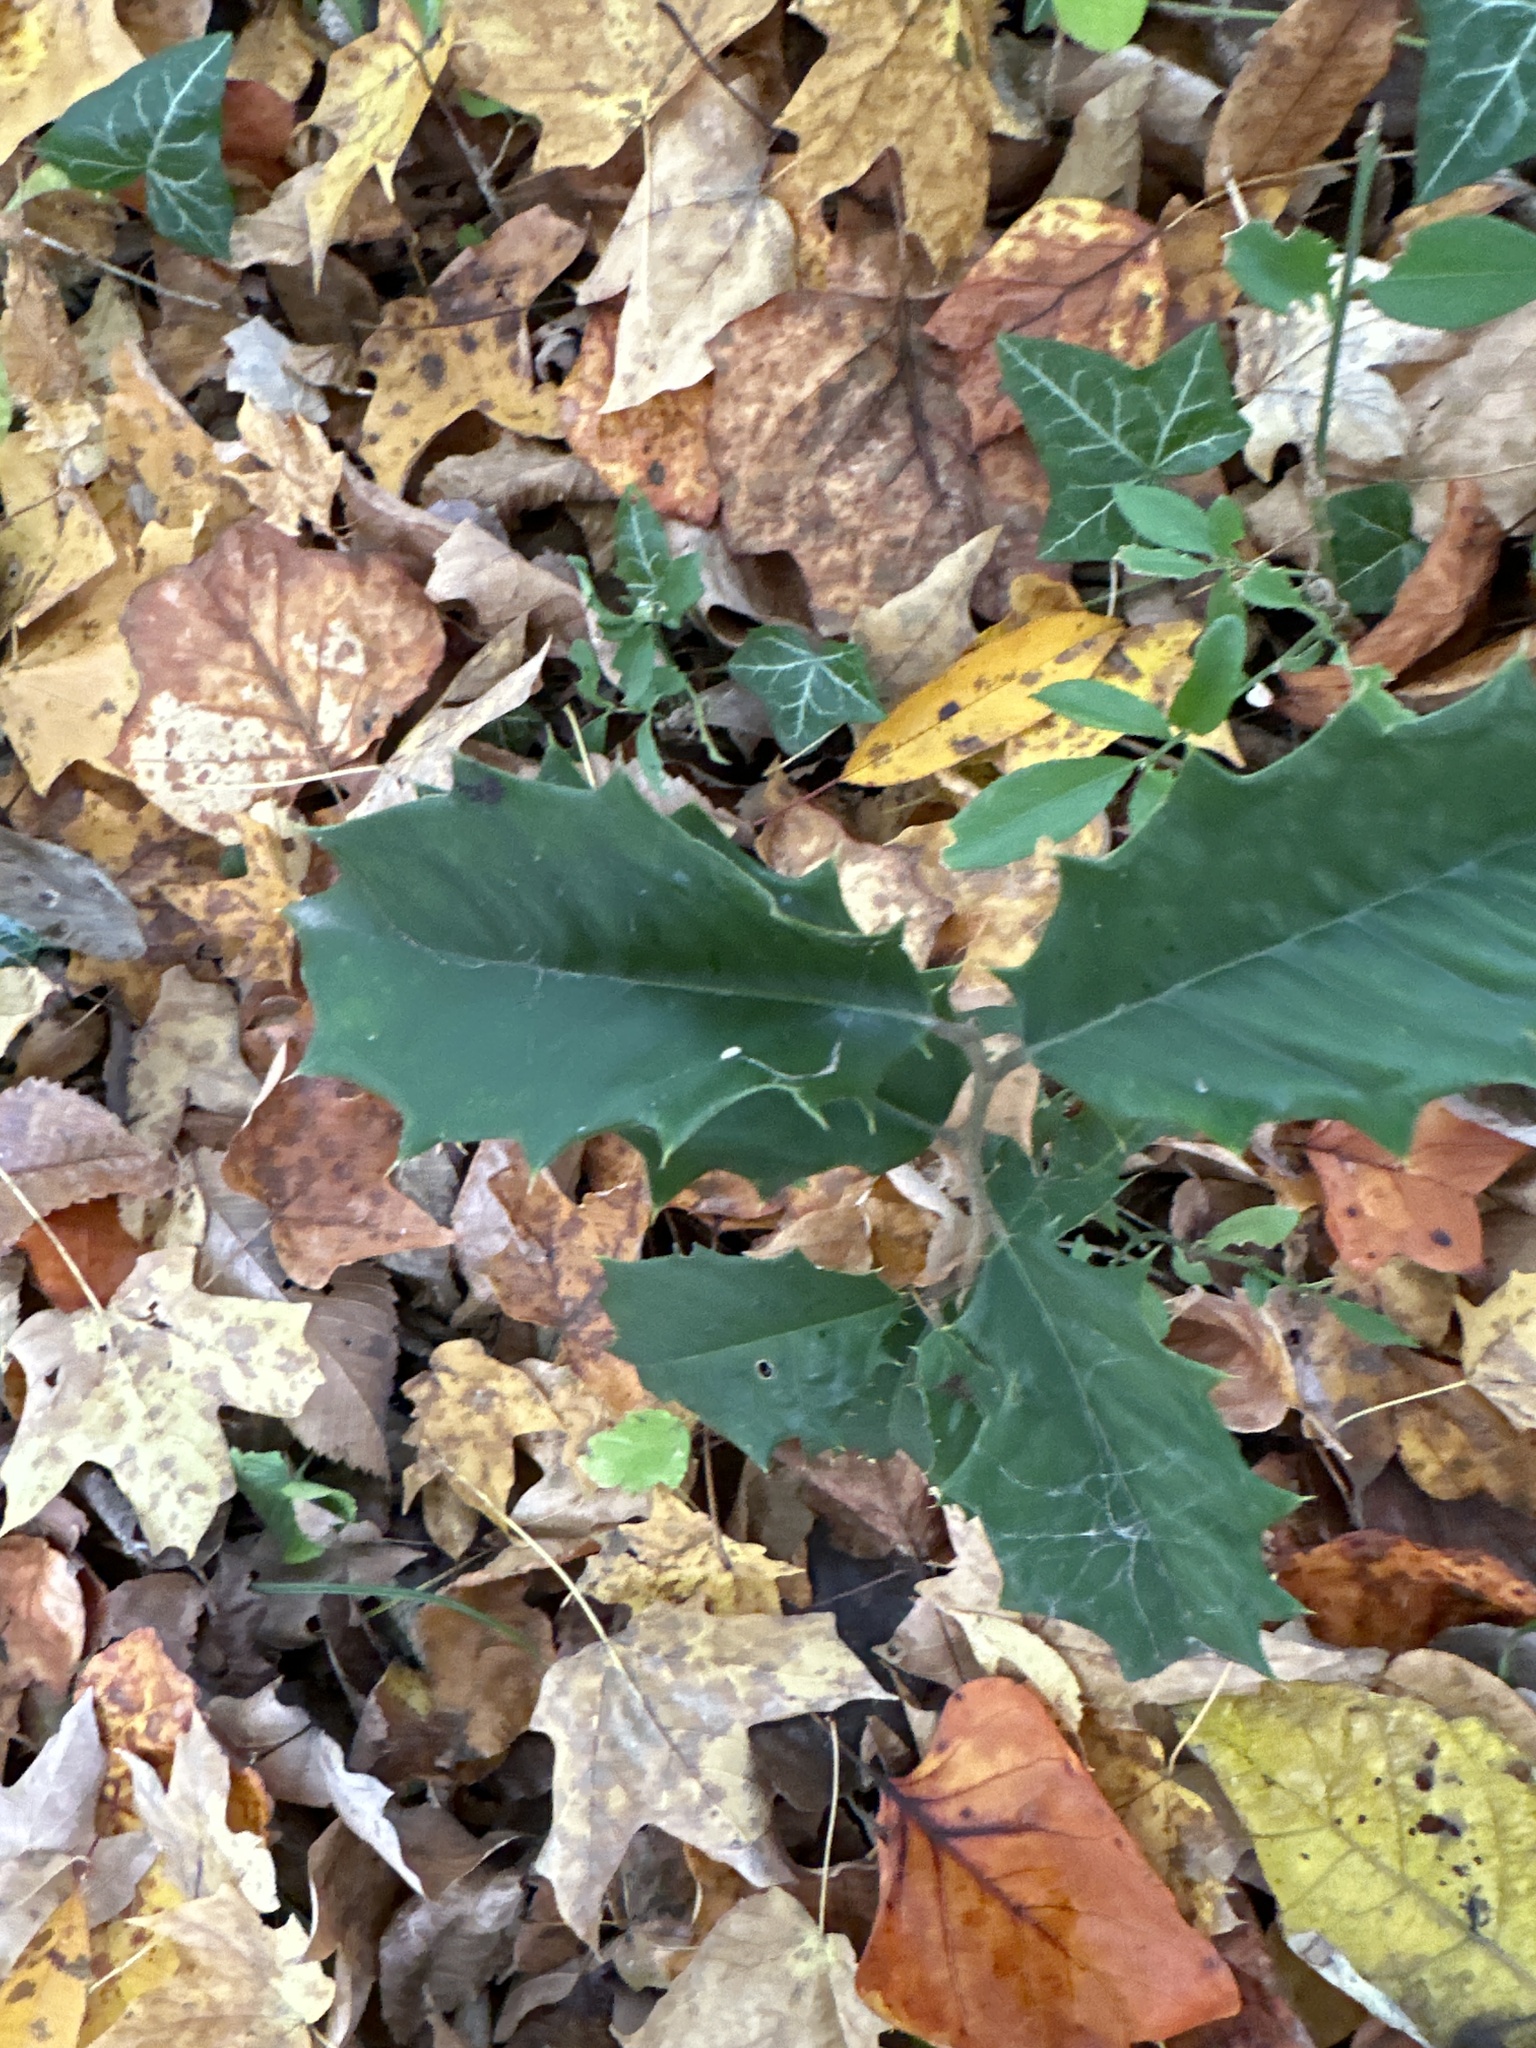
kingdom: Plantae
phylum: Tracheophyta
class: Magnoliopsida
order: Aquifoliales
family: Aquifoliaceae
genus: Ilex
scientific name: Ilex opaca
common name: American holly
